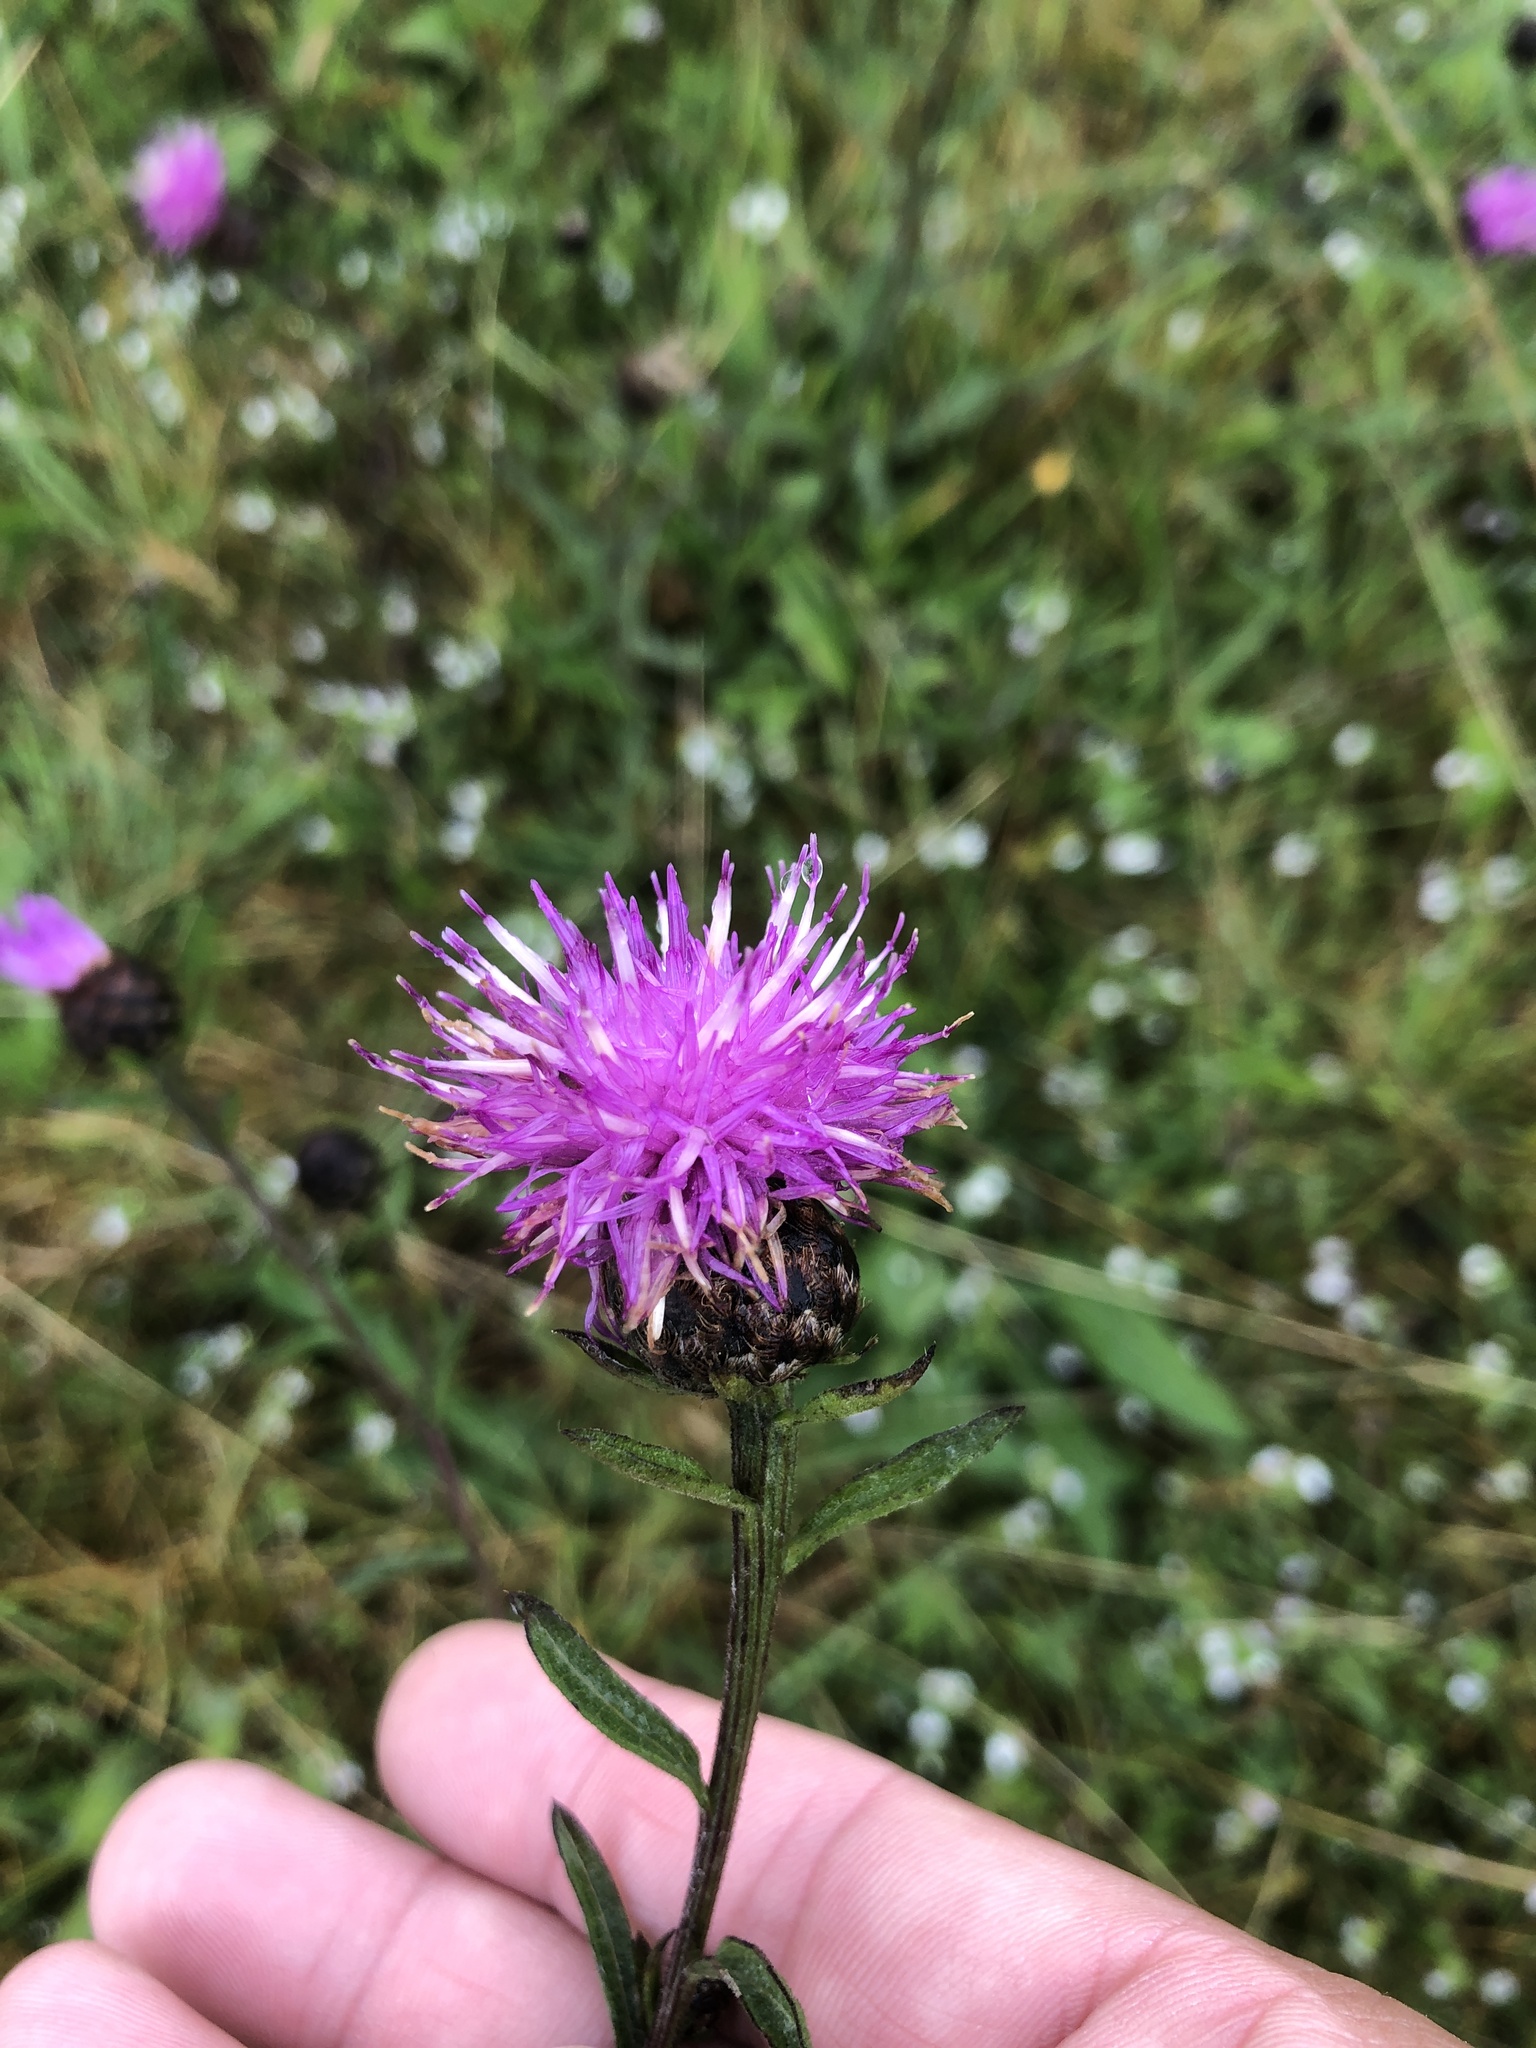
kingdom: Plantae
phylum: Tracheophyta
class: Magnoliopsida
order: Asterales
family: Asteraceae
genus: Centaurea
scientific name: Centaurea nigra
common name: Lesser knapweed
